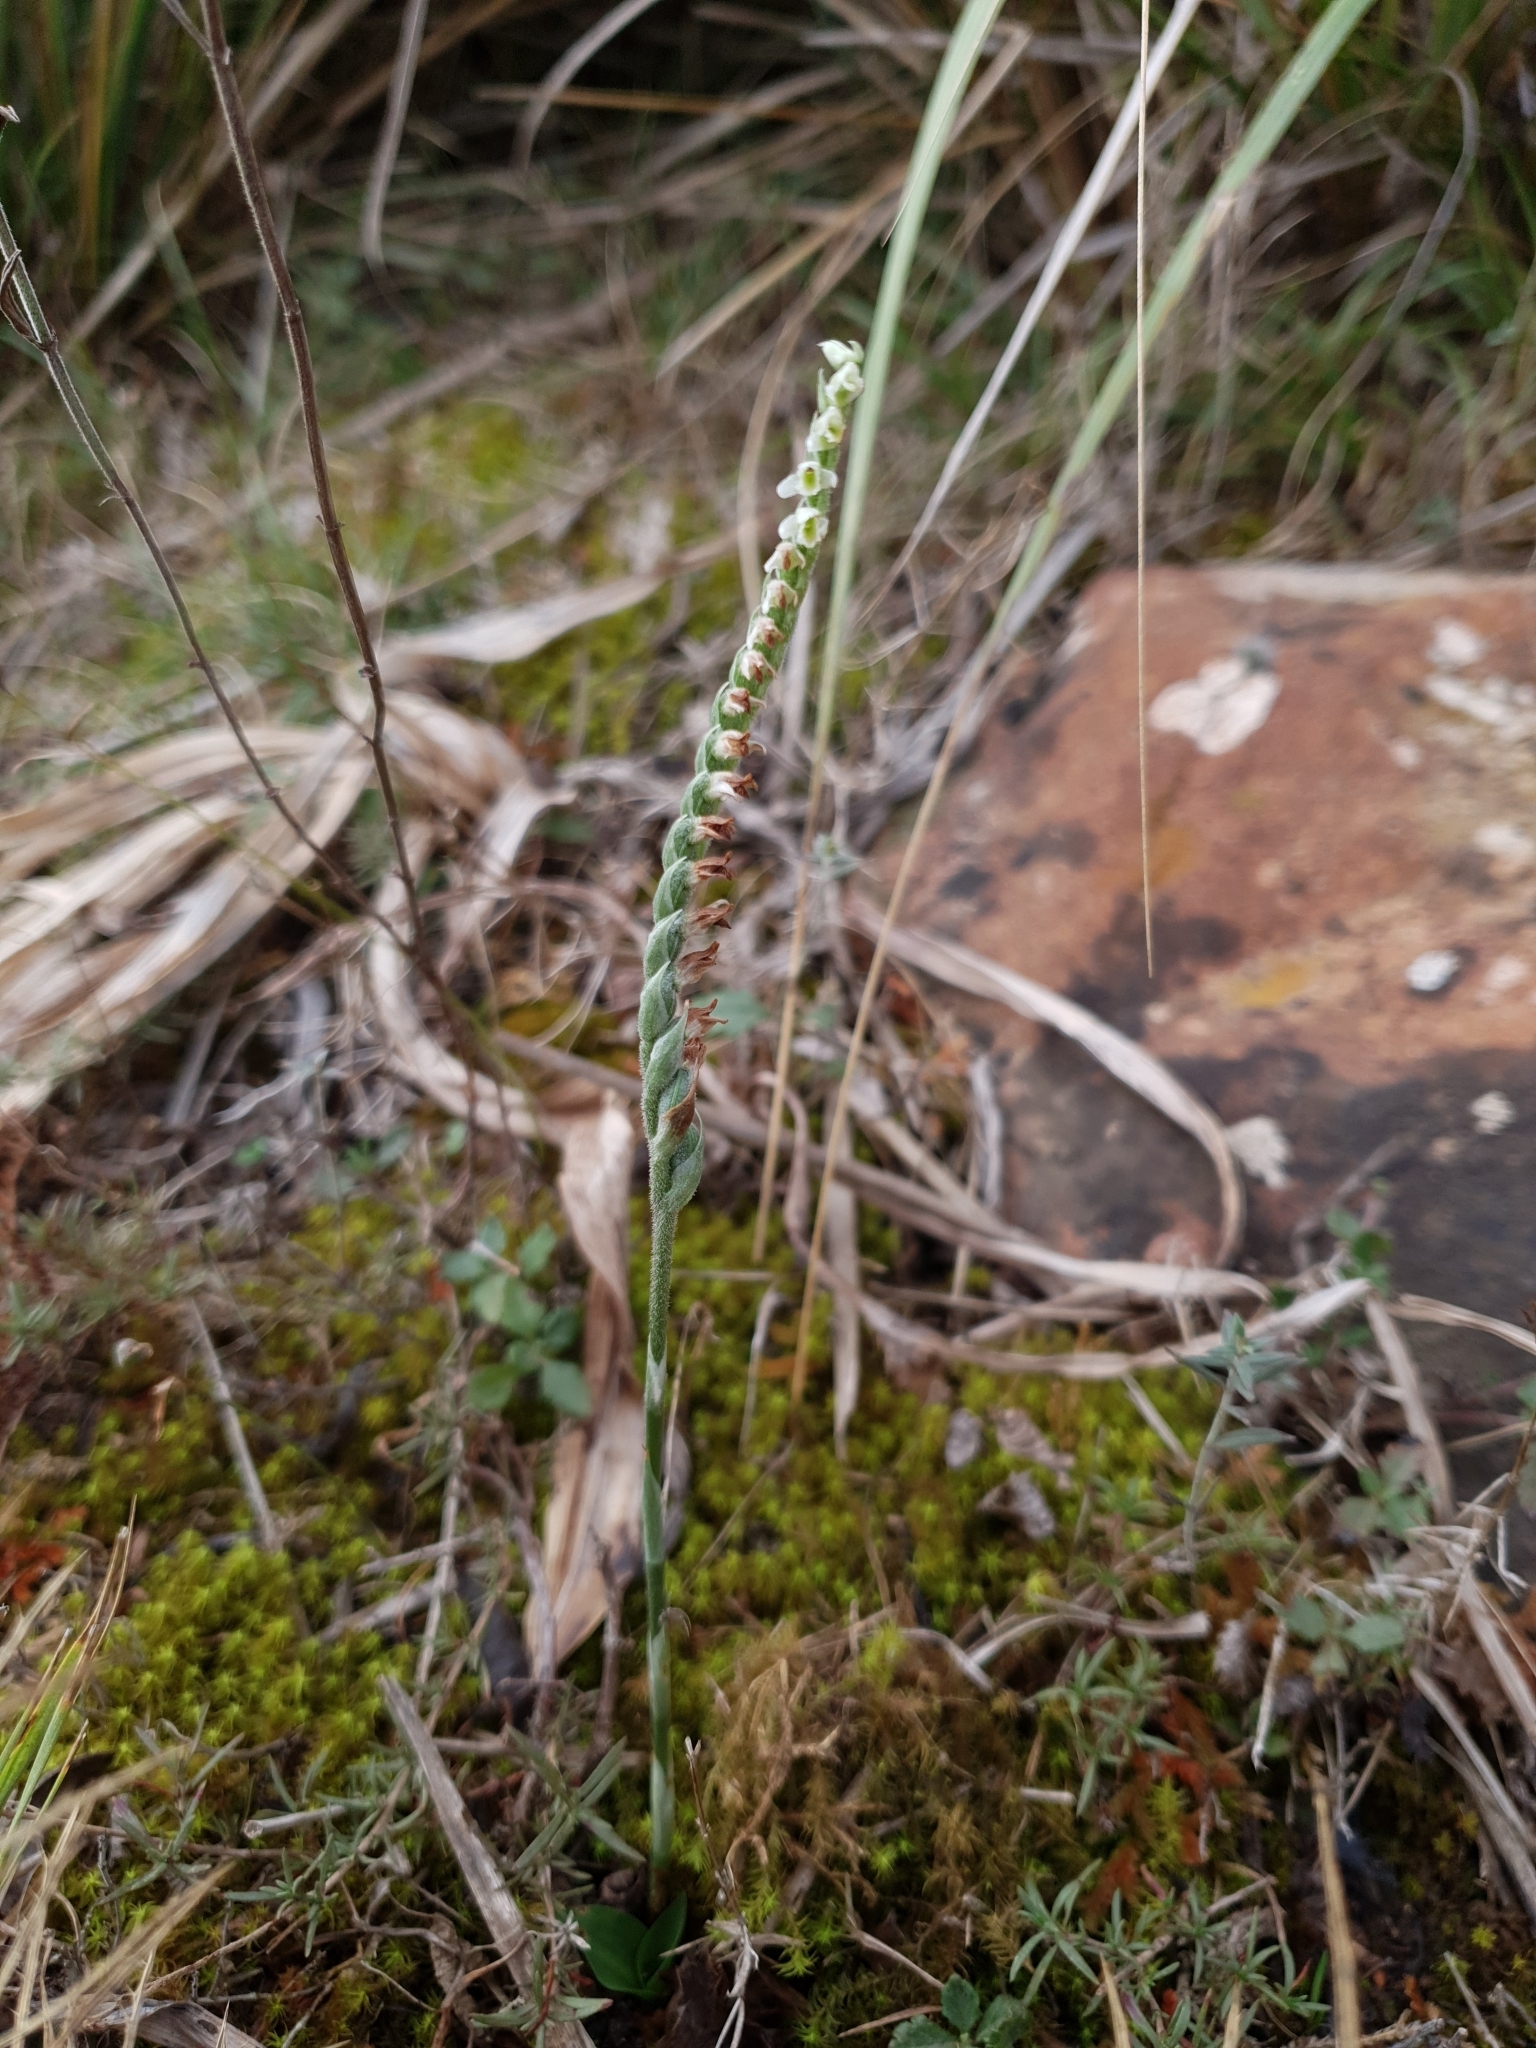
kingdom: Plantae
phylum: Tracheophyta
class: Liliopsida
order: Asparagales
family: Orchidaceae
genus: Spiranthes
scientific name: Spiranthes spiralis
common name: Autumn lady's-tresses
